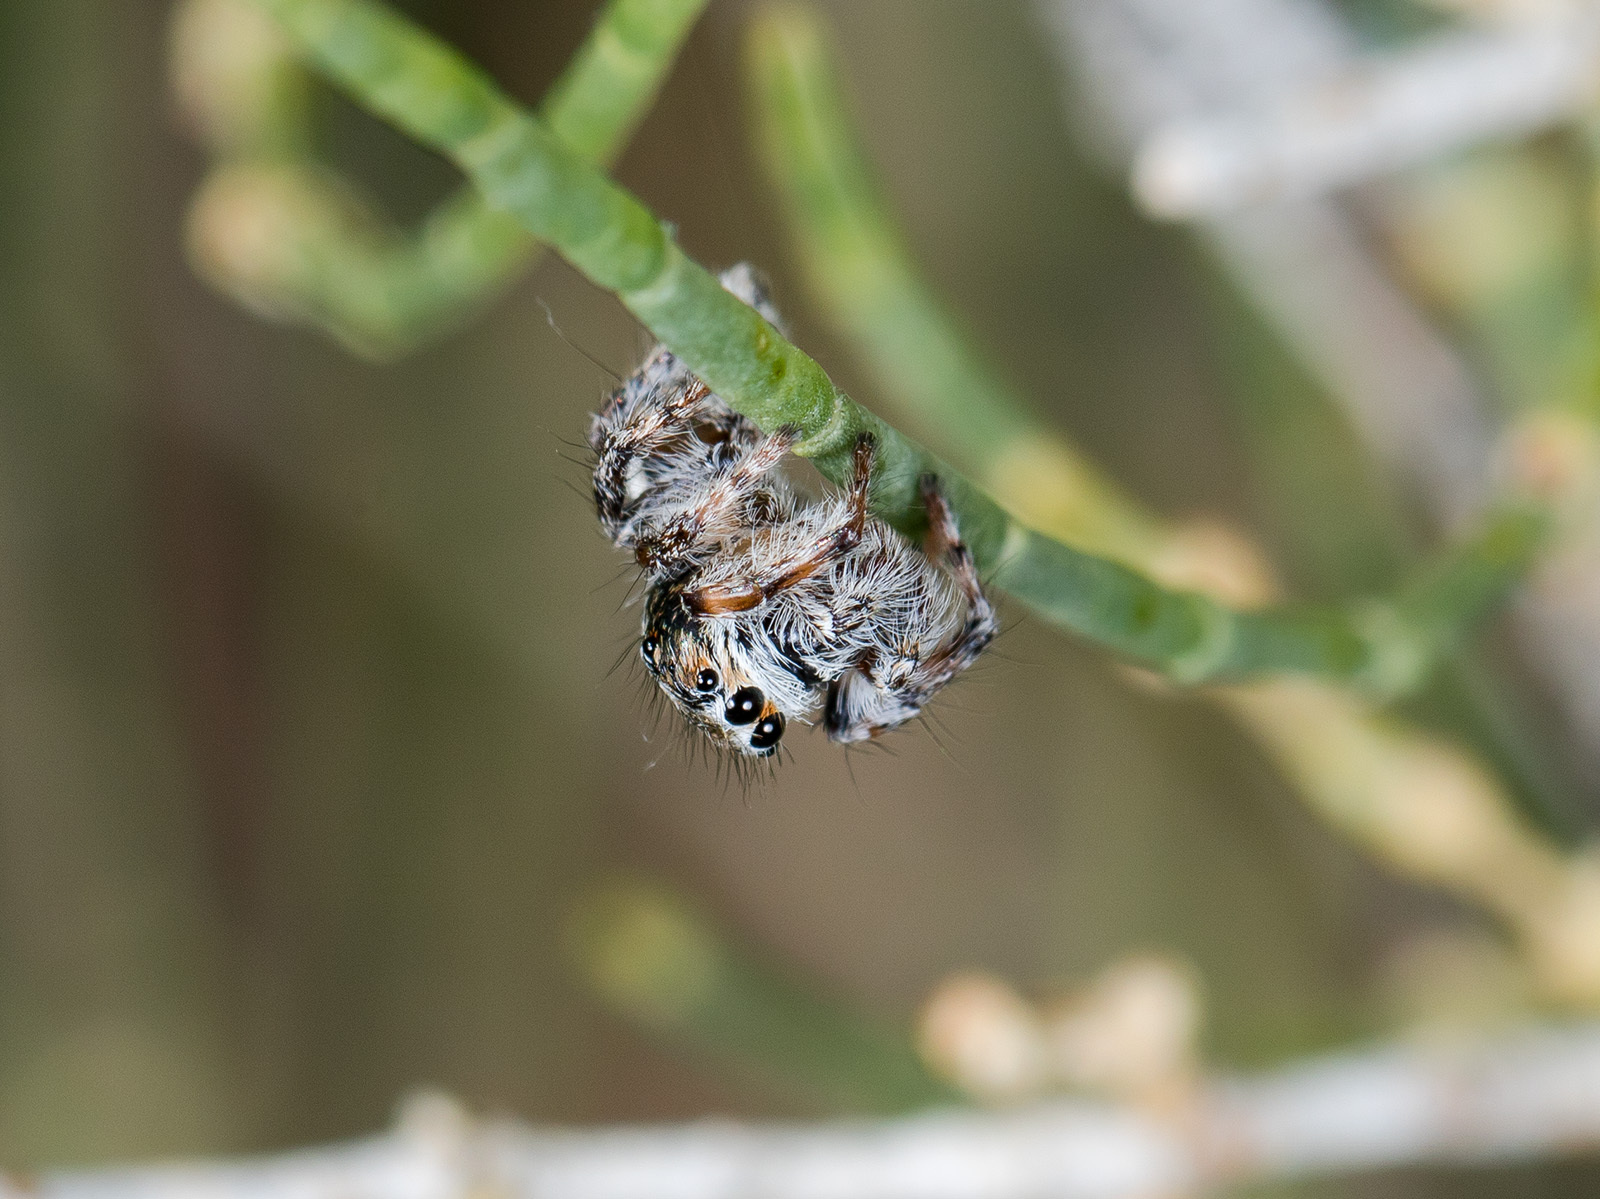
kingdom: Animalia
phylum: Arthropoda
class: Arachnida
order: Araneae
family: Salticidae
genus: Mogrus
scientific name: Mogrus antoninus
